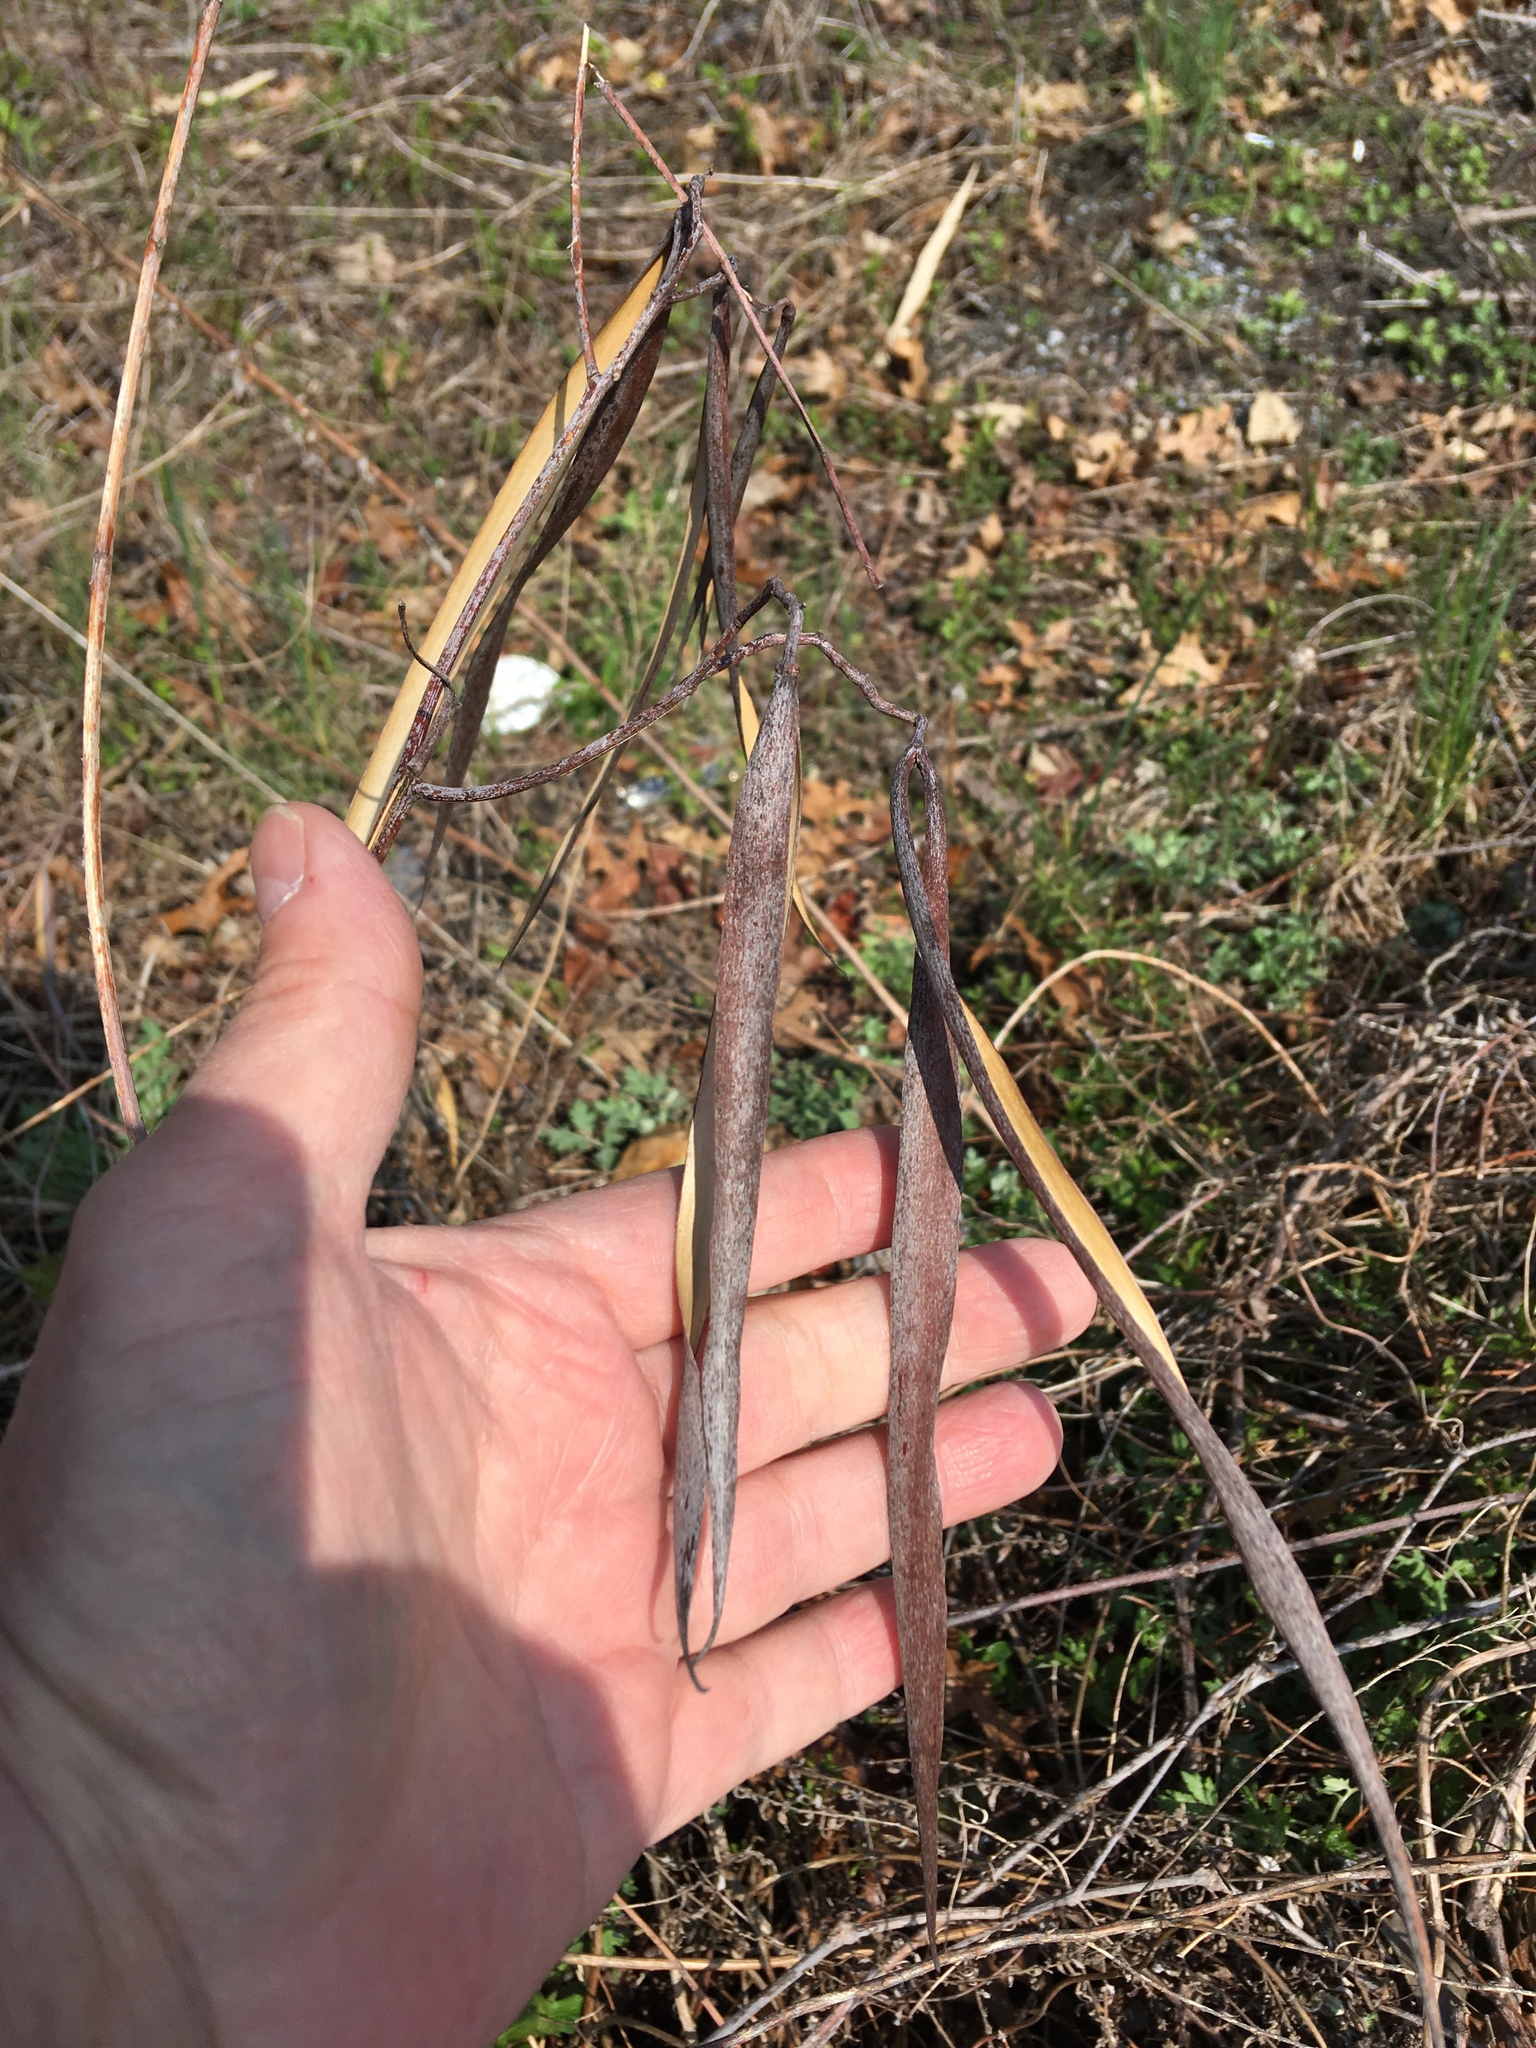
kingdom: Plantae
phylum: Tracheophyta
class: Magnoliopsida
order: Gentianales
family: Apocynaceae
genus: Apocynum
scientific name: Apocynum cannabinum
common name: Hemp dogbane
